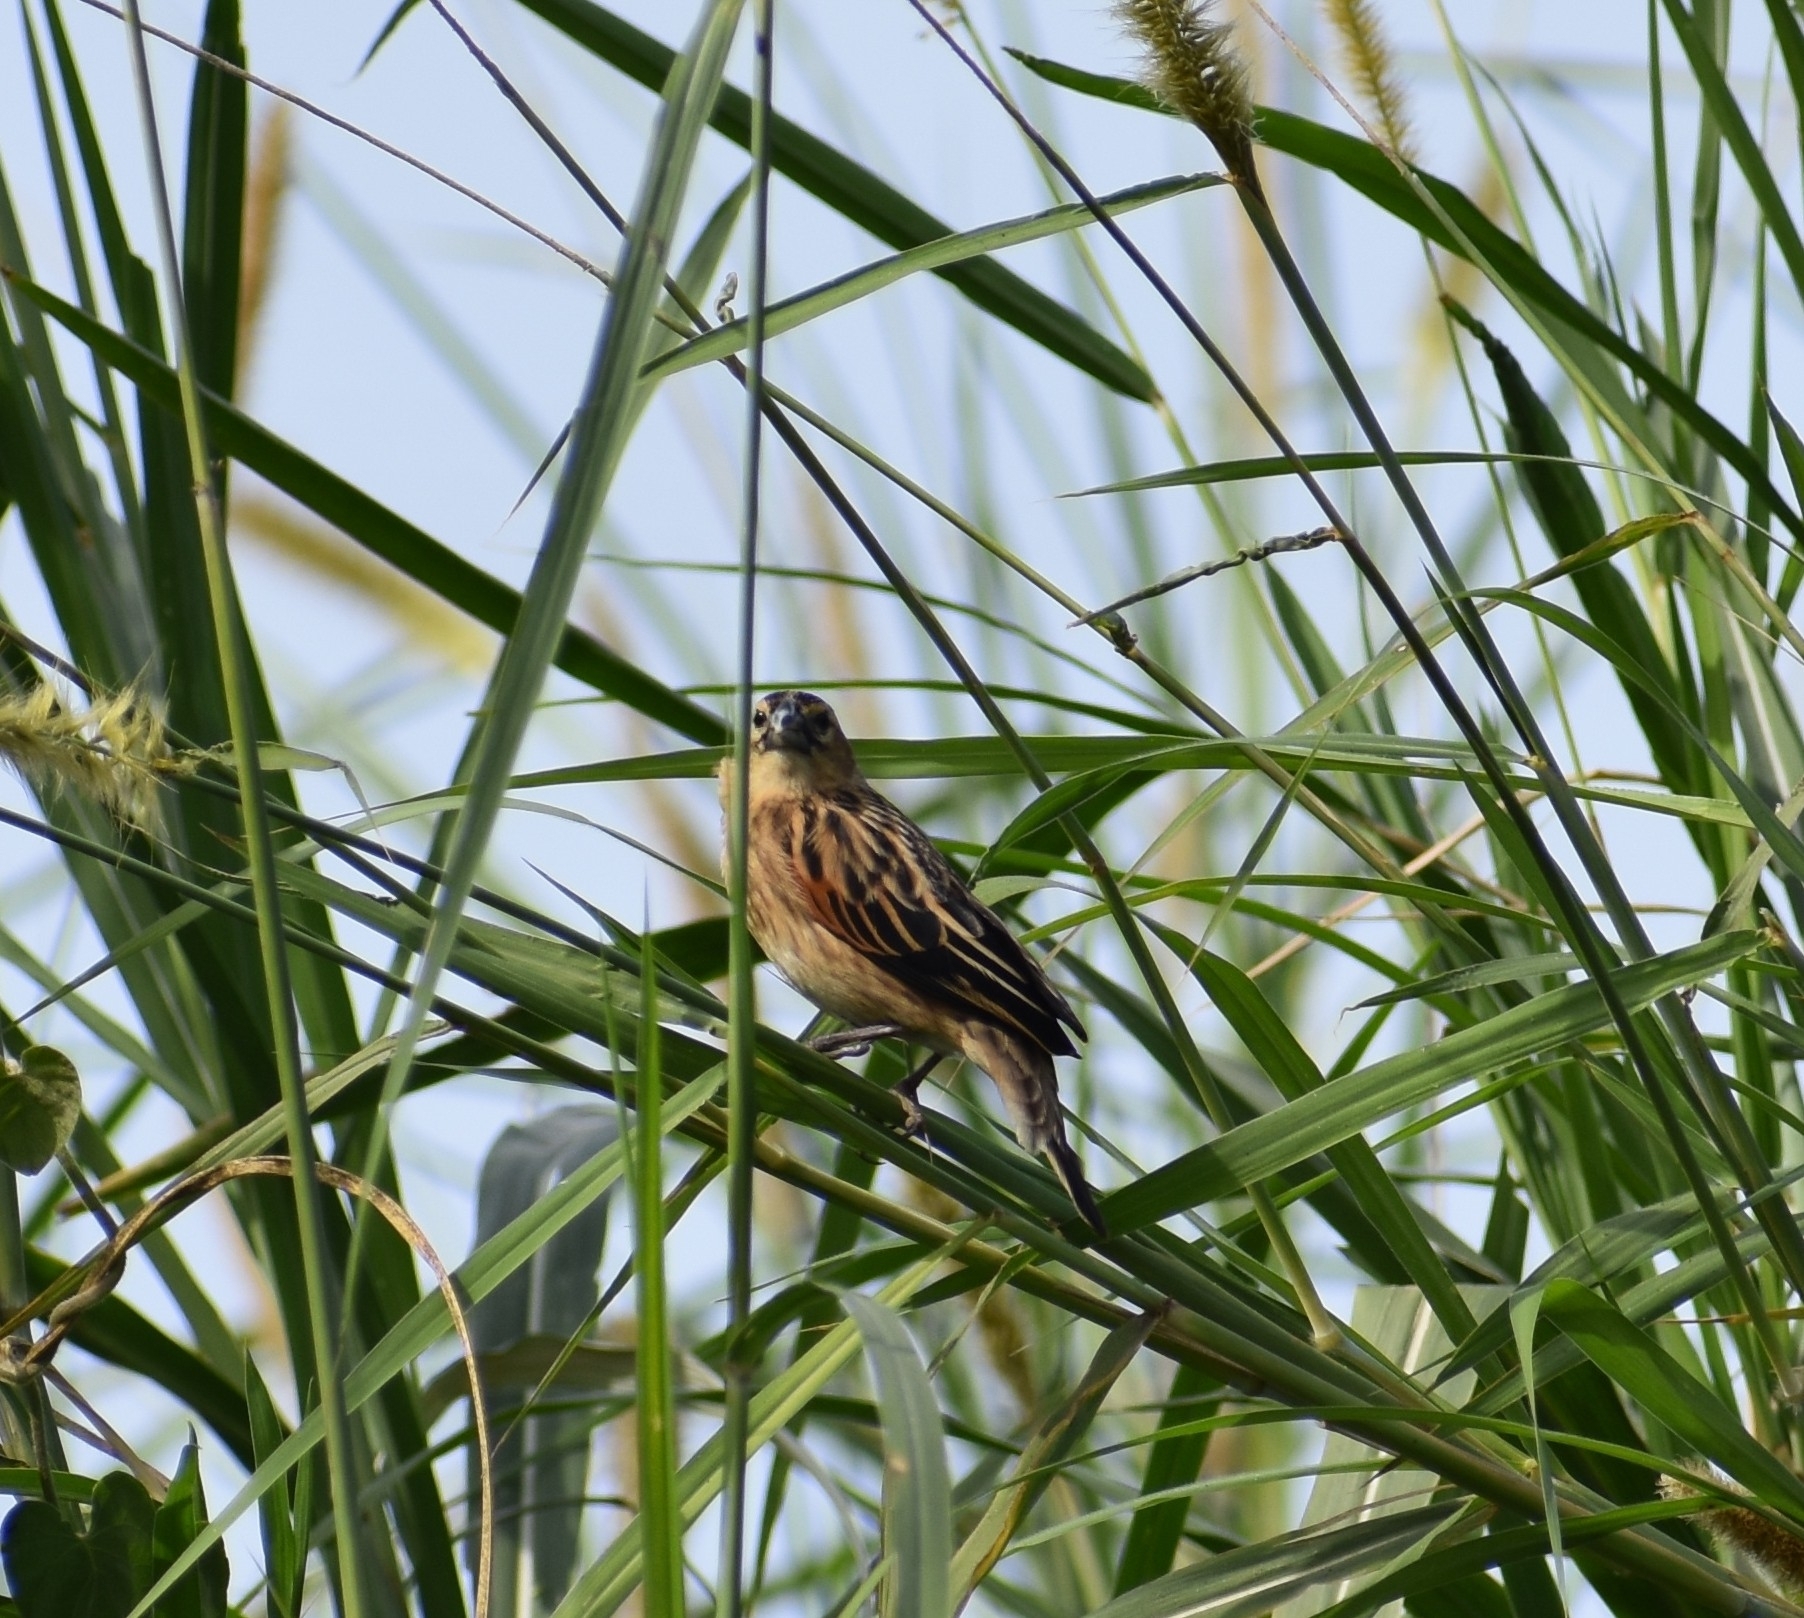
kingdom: Animalia
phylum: Chordata
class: Aves
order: Passeriformes
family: Ploceidae
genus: Euplectes
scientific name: Euplectes axillaris
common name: Fan-tailed widowbird
